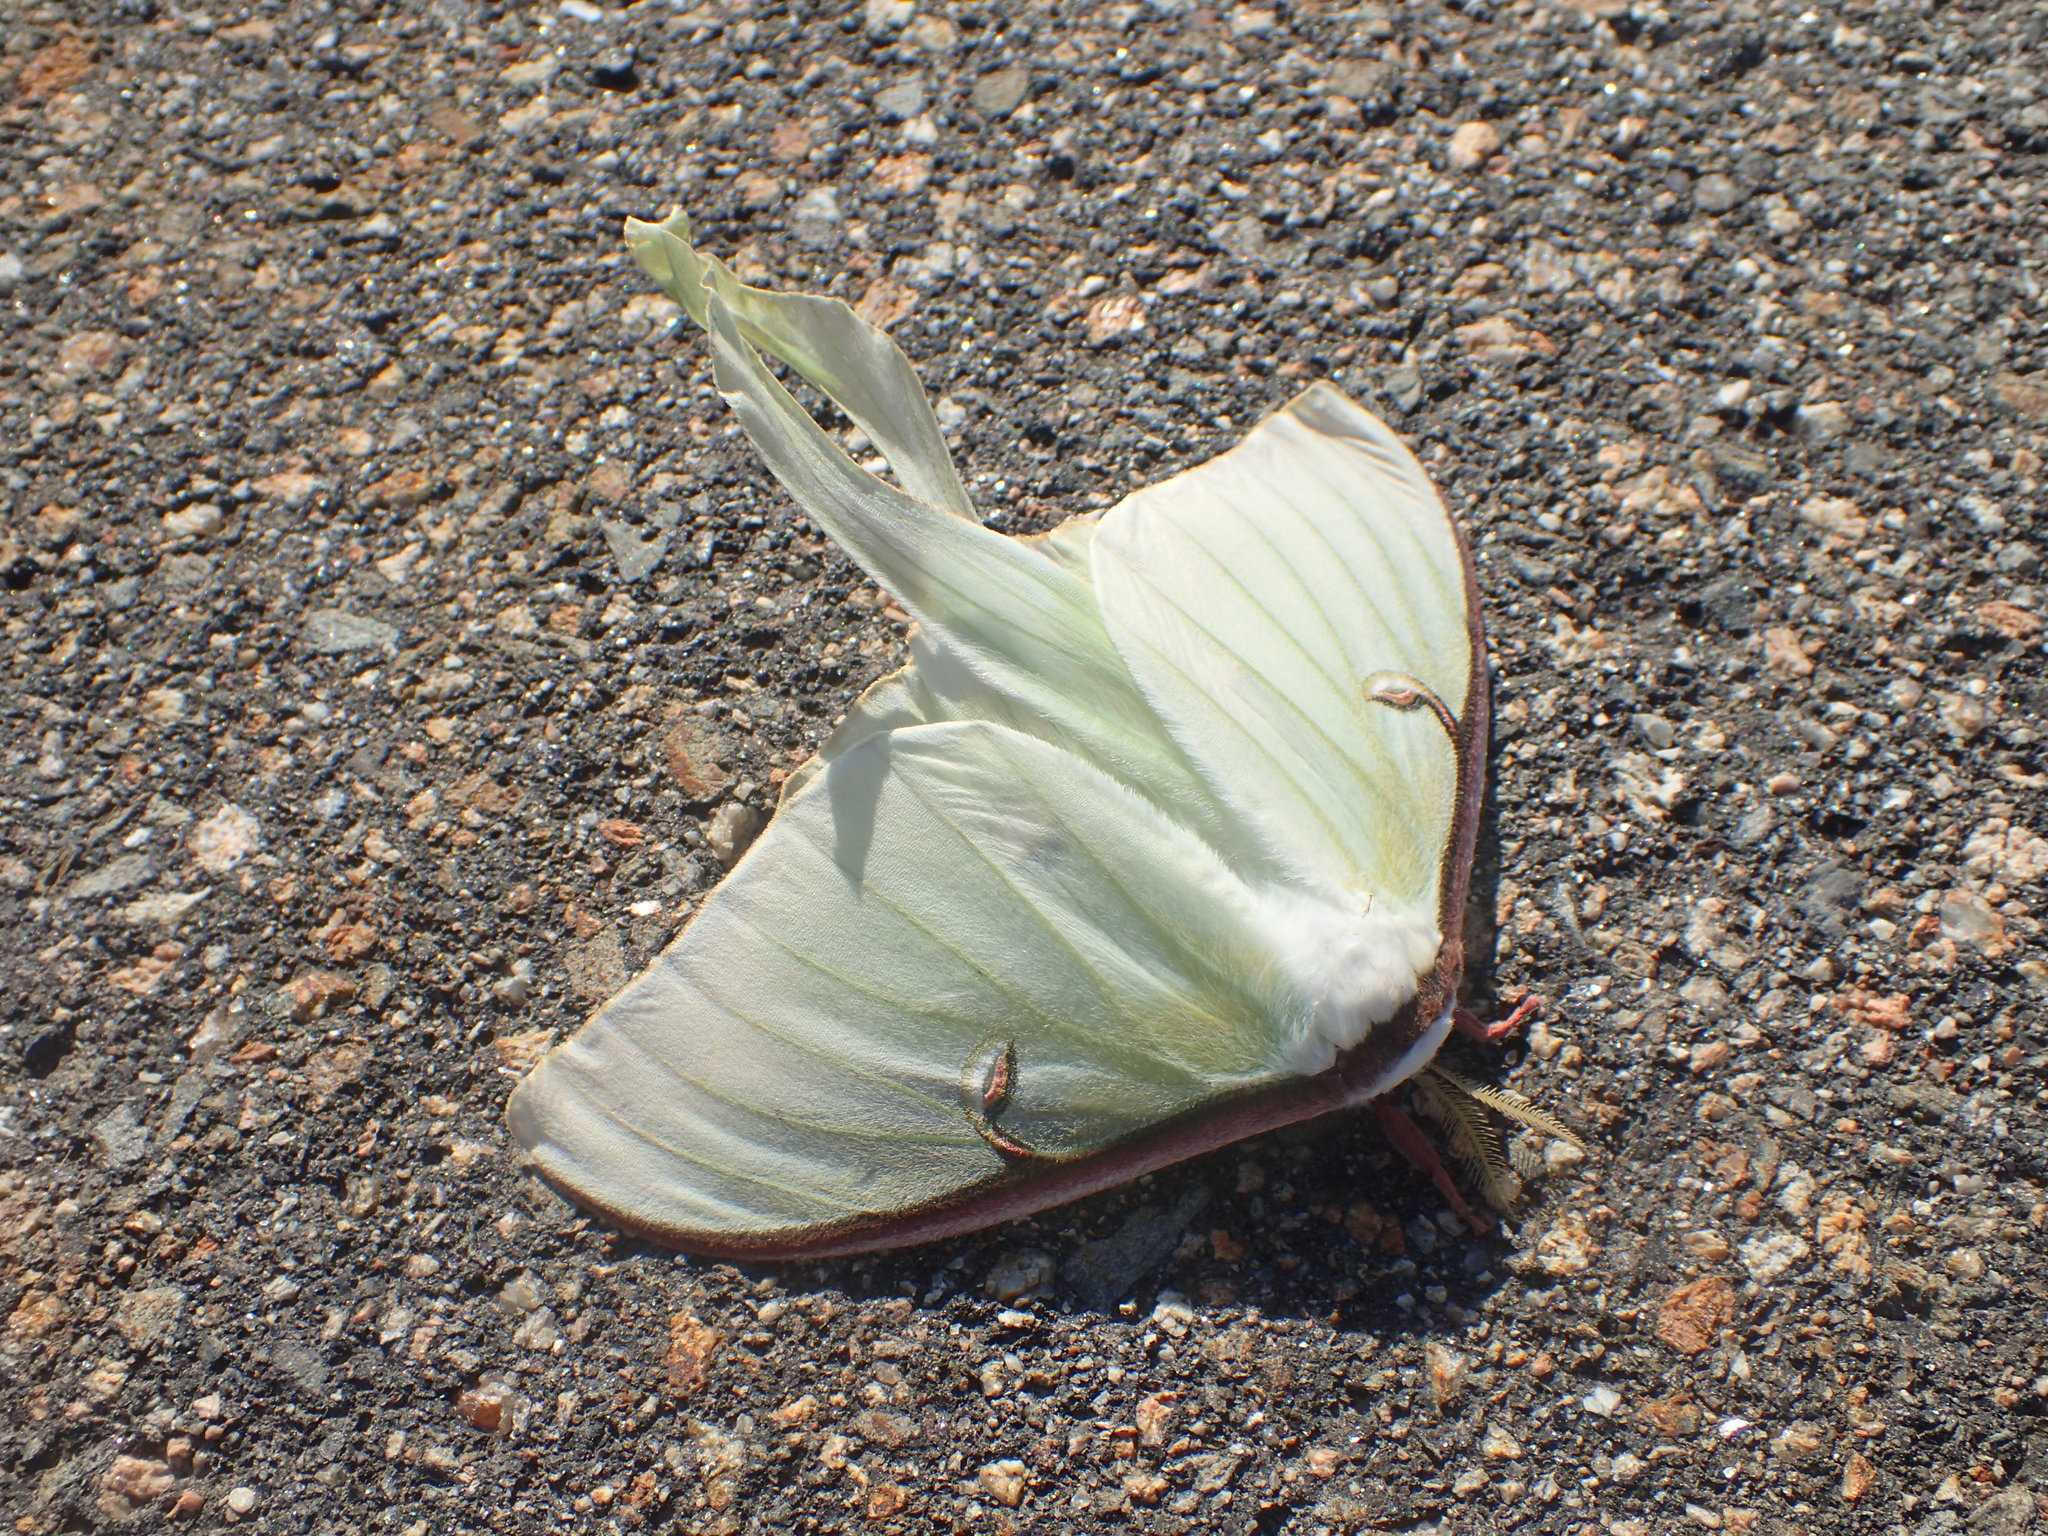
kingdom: Animalia
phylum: Arthropoda
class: Insecta
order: Lepidoptera
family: Saturniidae
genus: Actias
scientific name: Actias luna
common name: Luna moth
